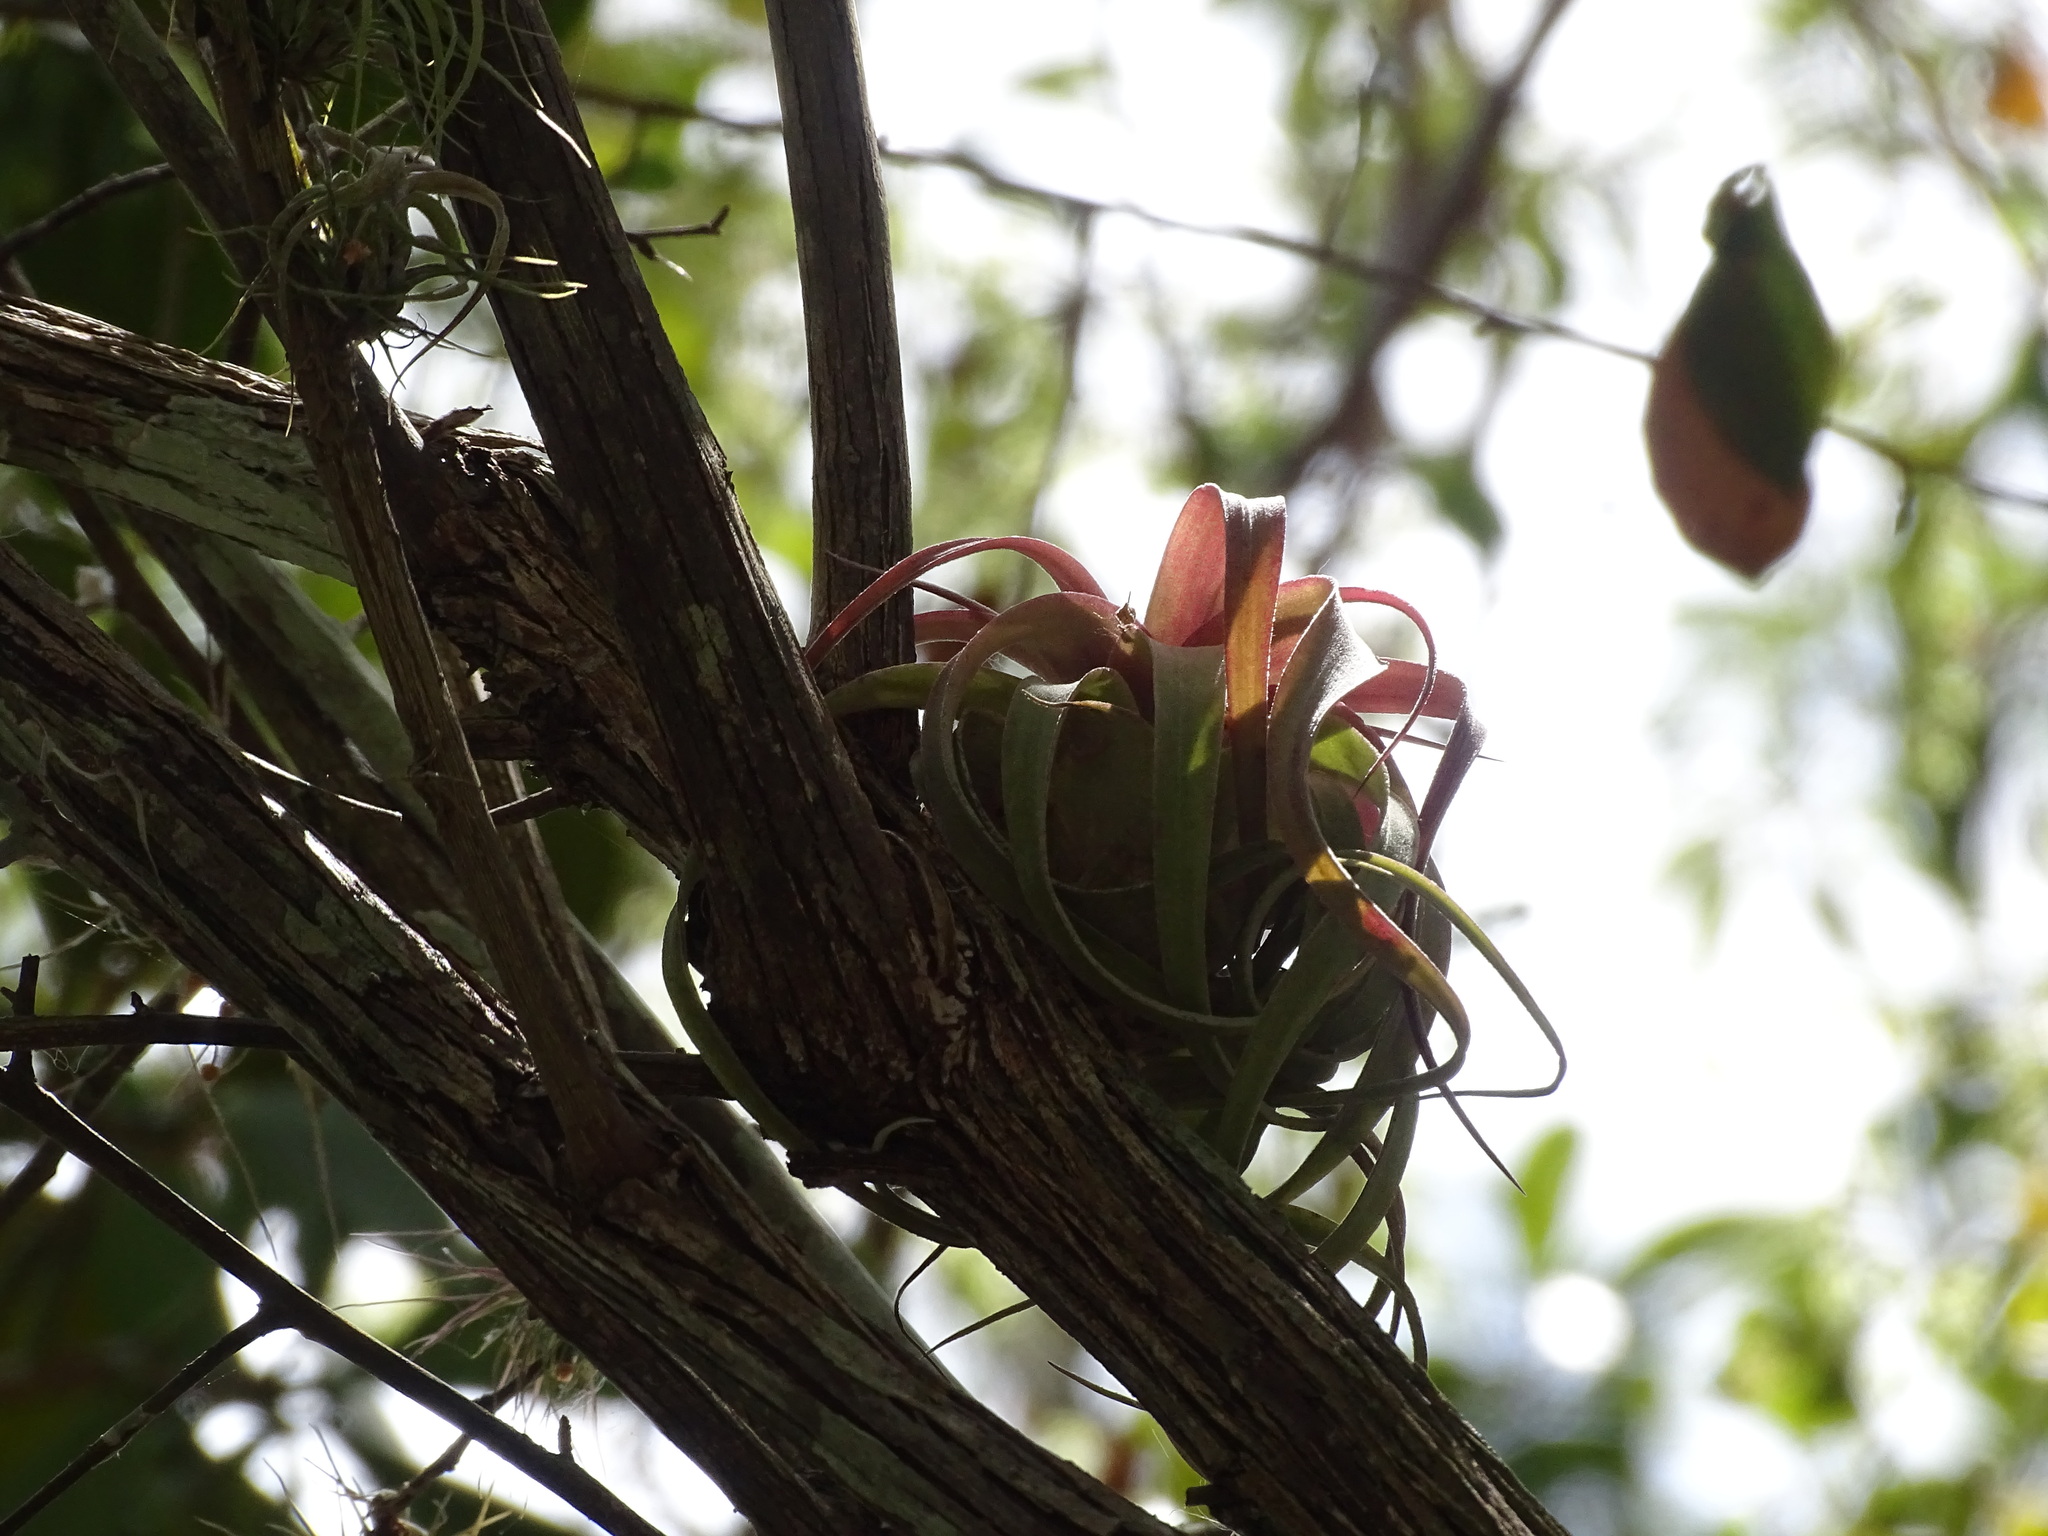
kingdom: Plantae
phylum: Tracheophyta
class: Liliopsida
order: Poales
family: Bromeliaceae
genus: Tillandsia
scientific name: Tillandsia streptophylla
